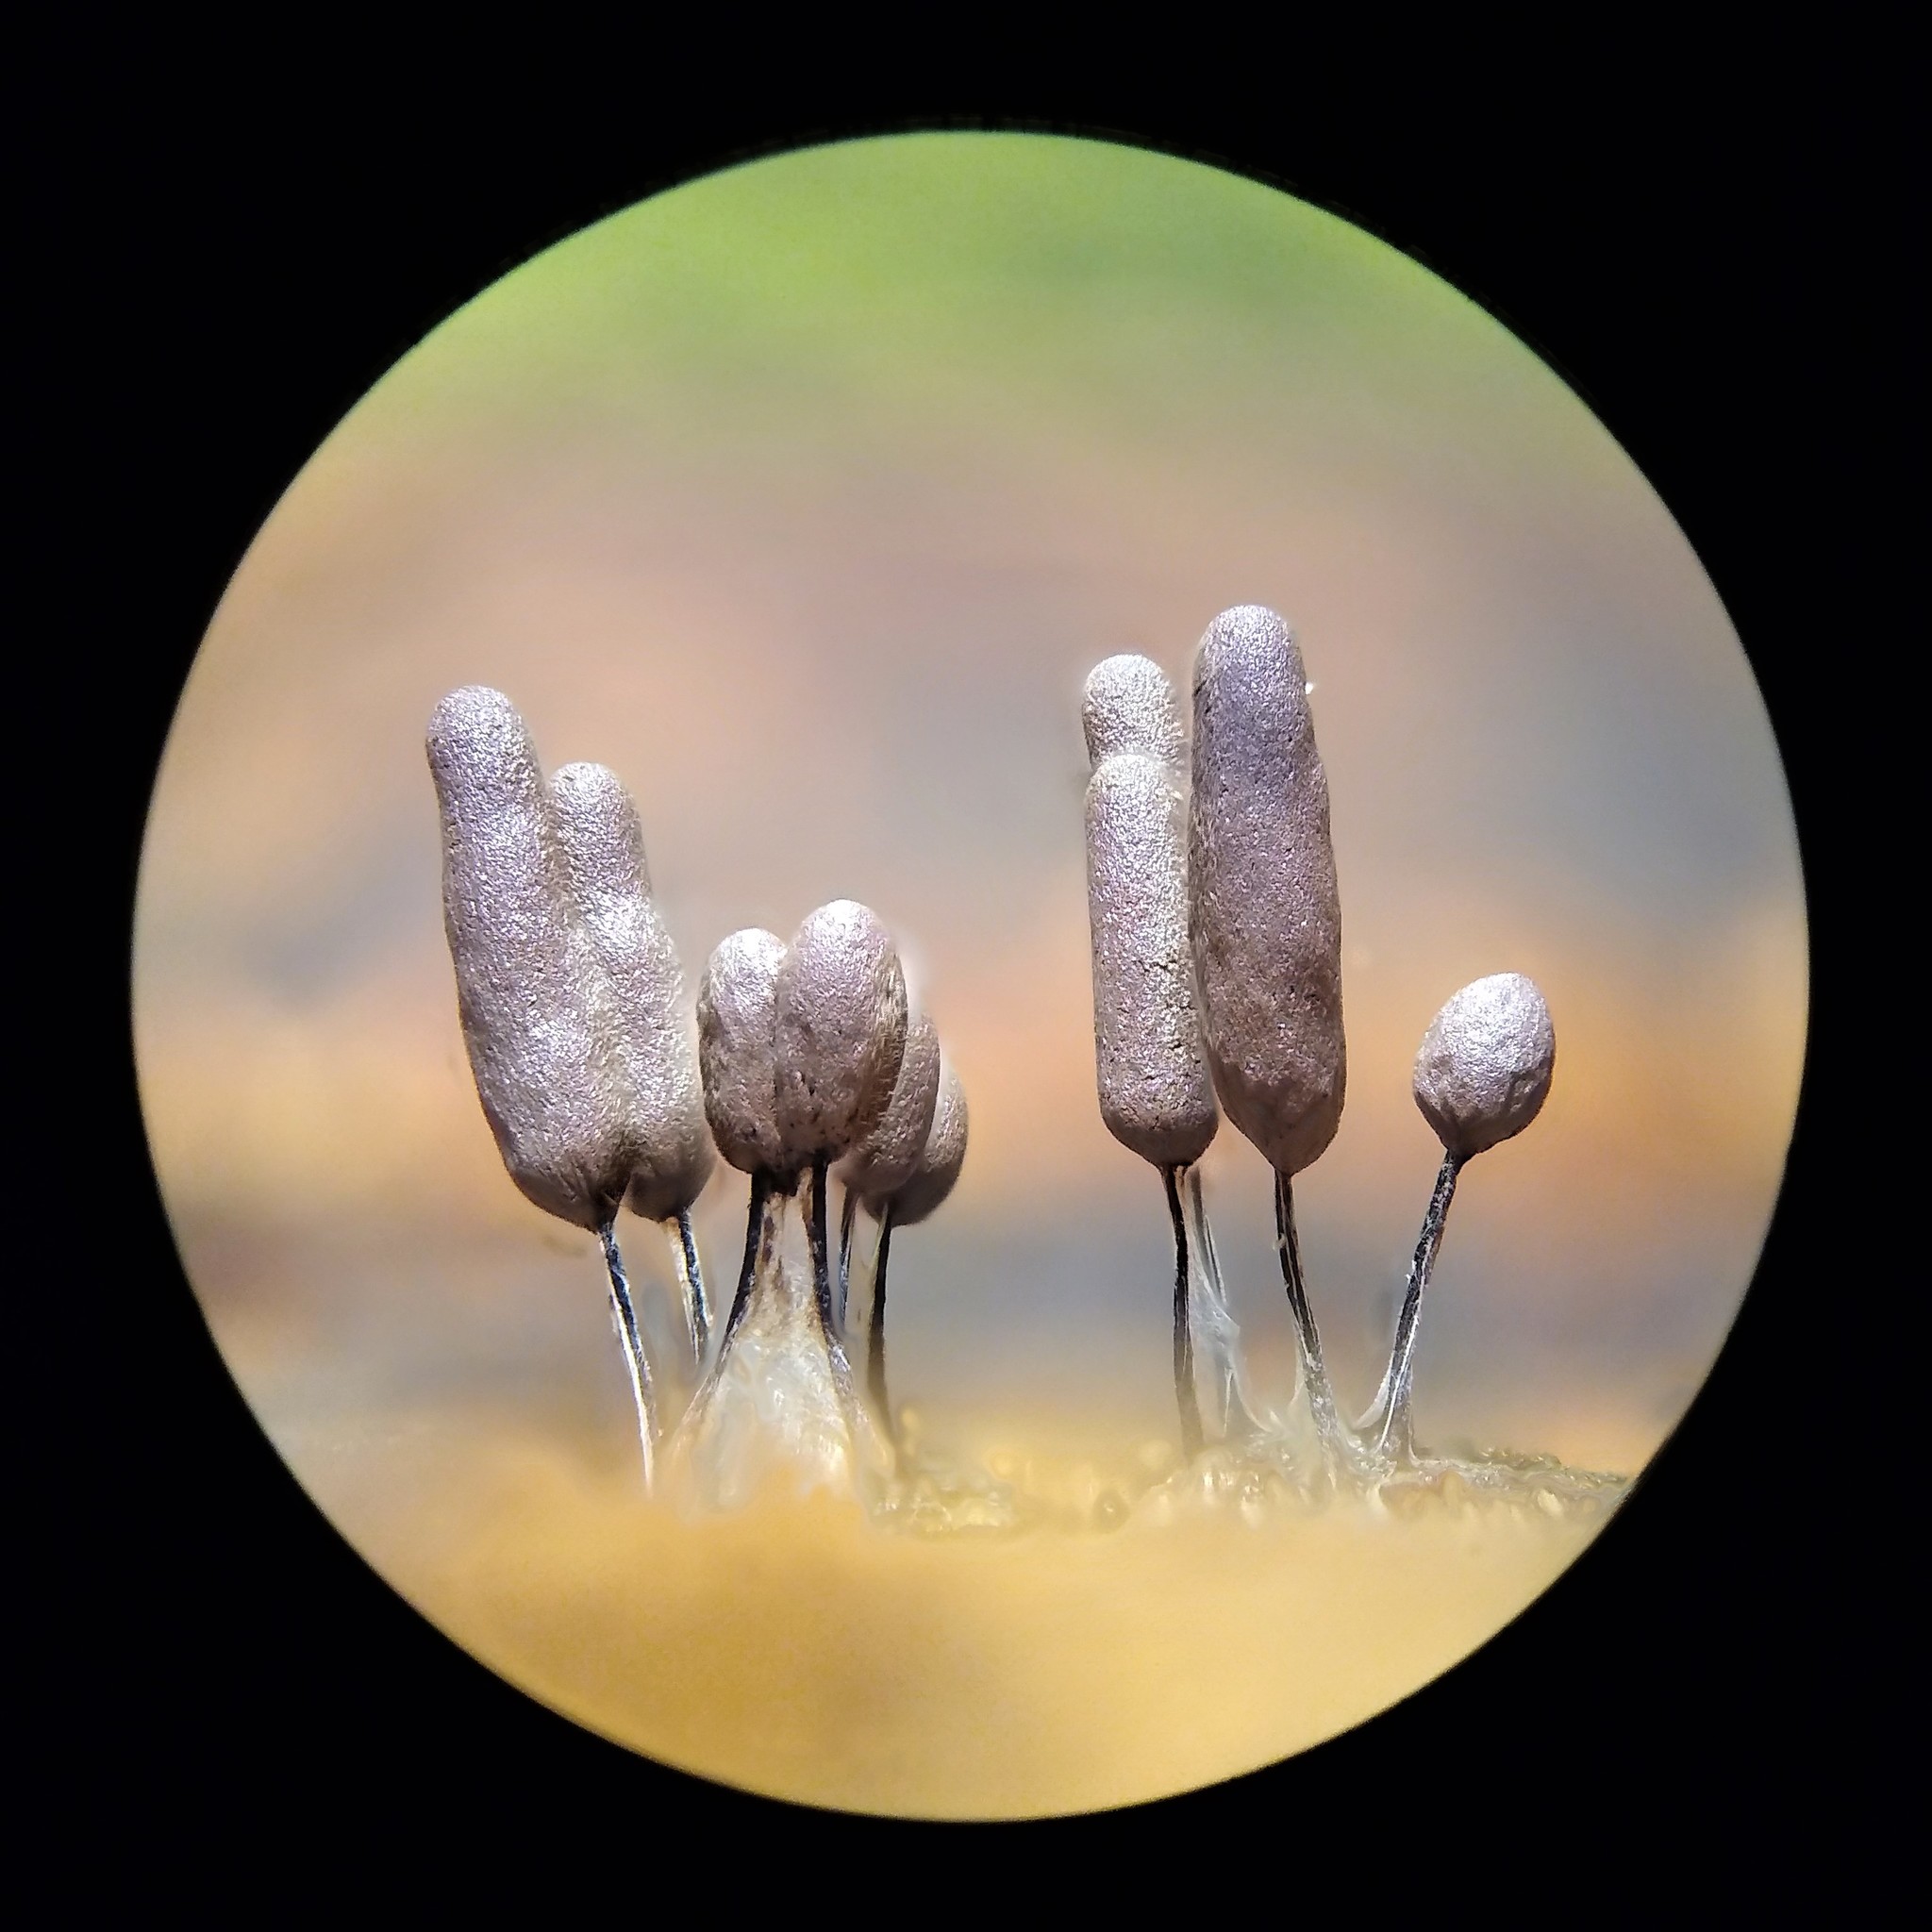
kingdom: Protozoa
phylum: Mycetozoa
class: Myxomycetes
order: Stemonitidales
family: Stemonitidaceae
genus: Stemonitopsis
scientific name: Stemonitopsis typhina
